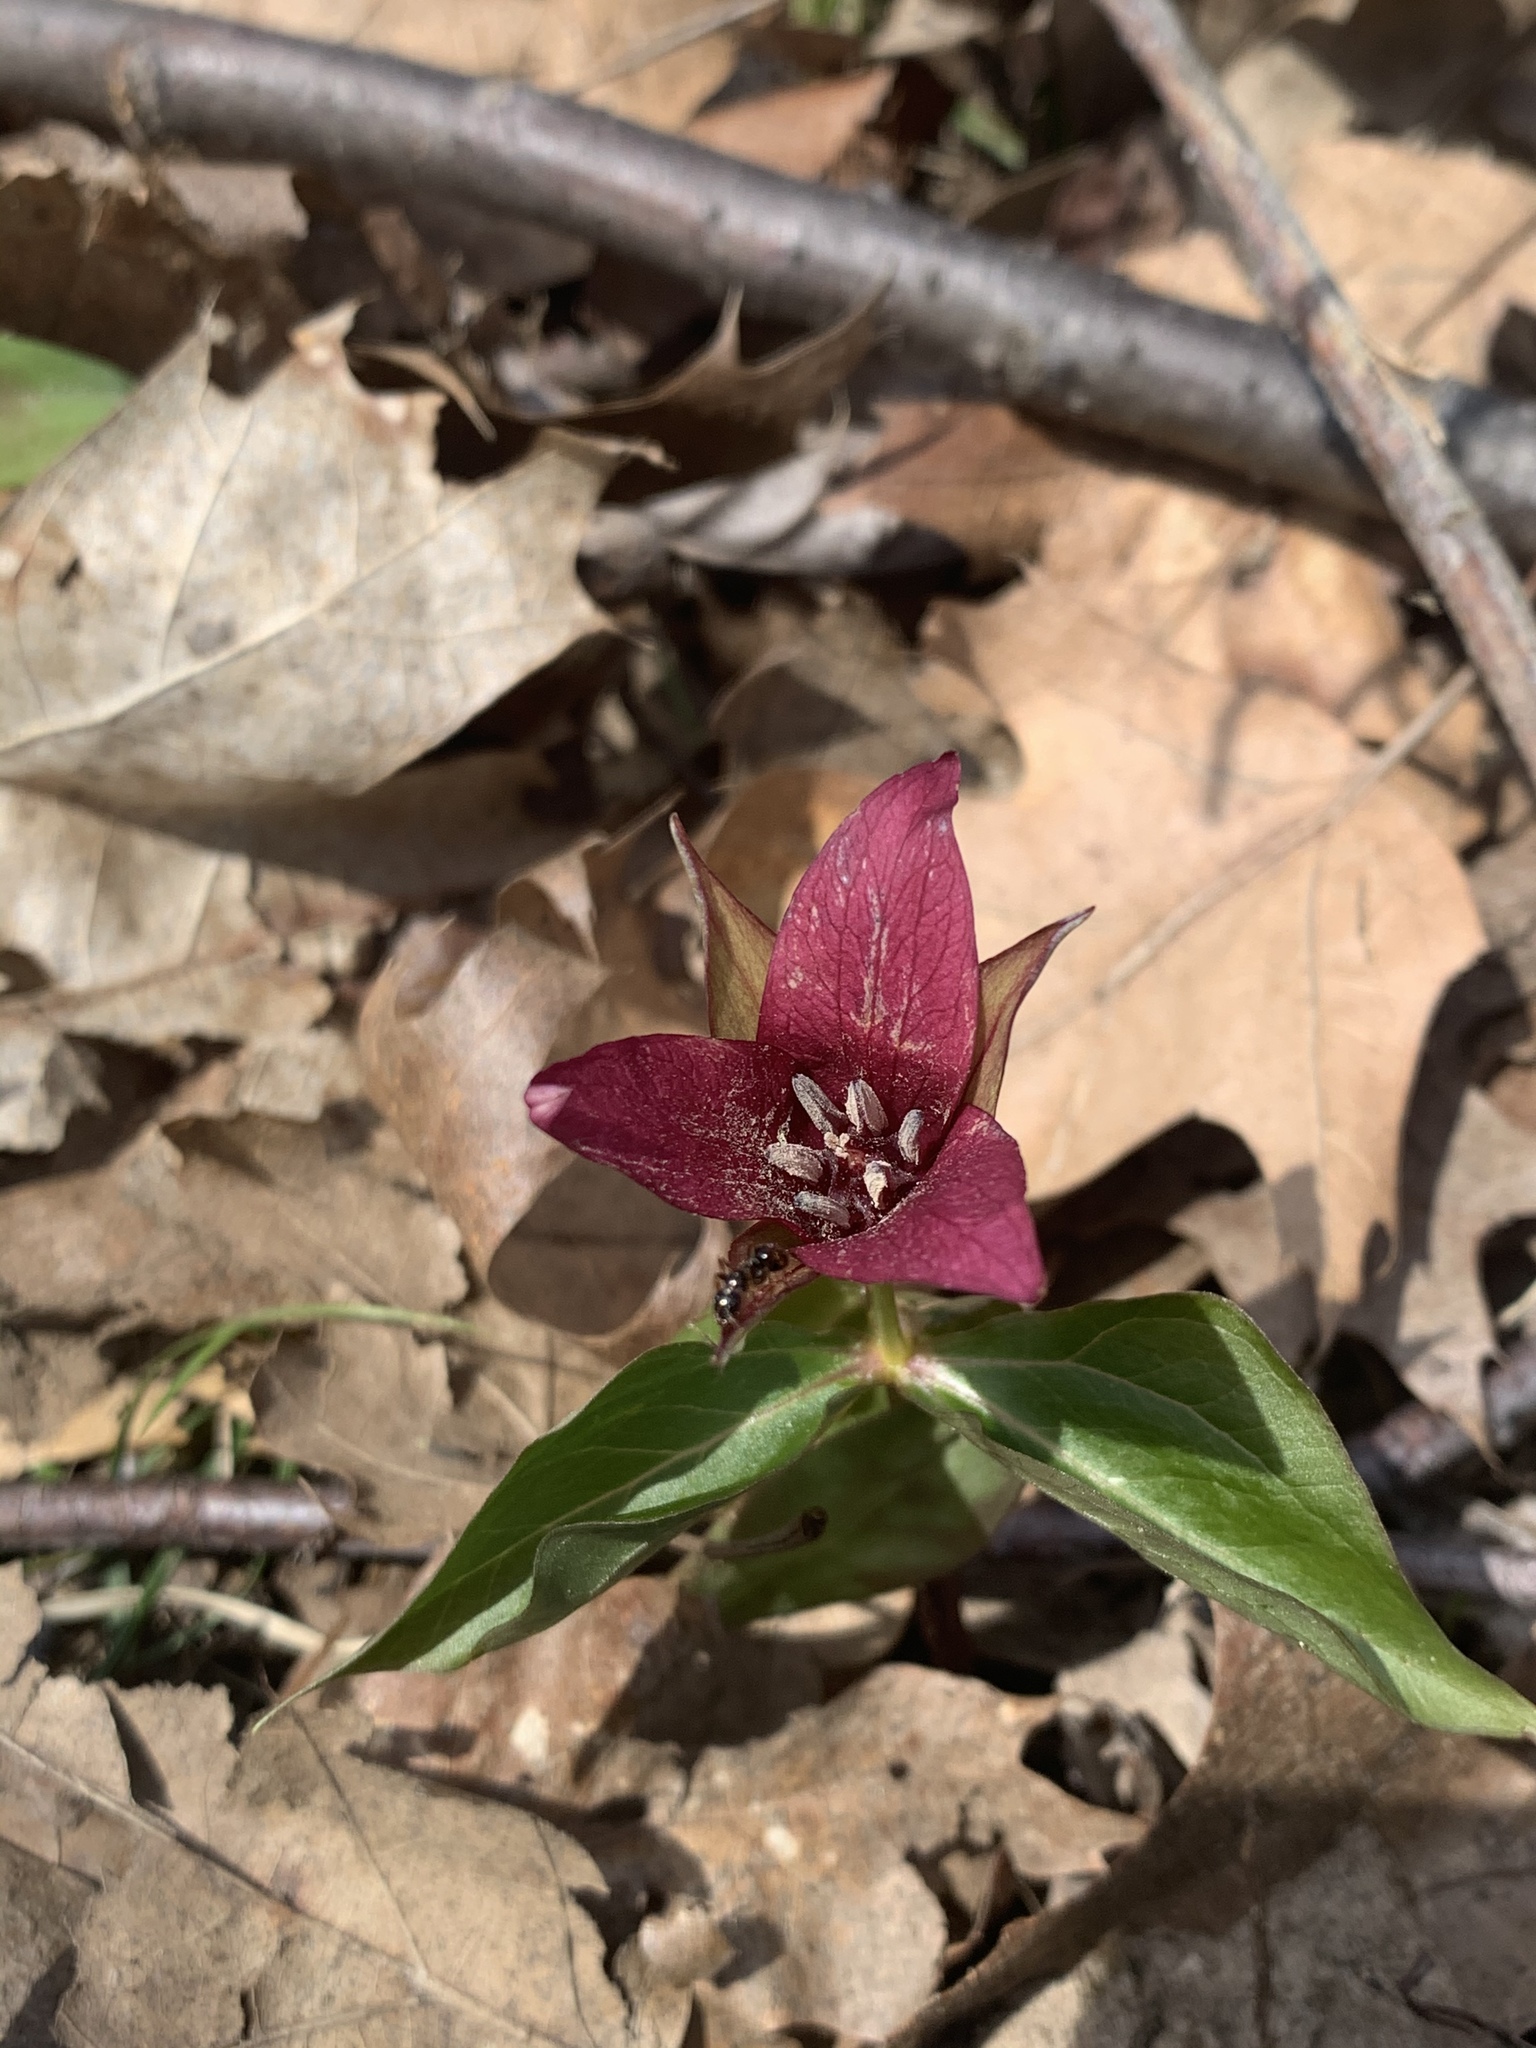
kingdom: Plantae
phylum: Tracheophyta
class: Liliopsida
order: Liliales
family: Melanthiaceae
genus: Trillium
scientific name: Trillium erectum
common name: Purple trillium
